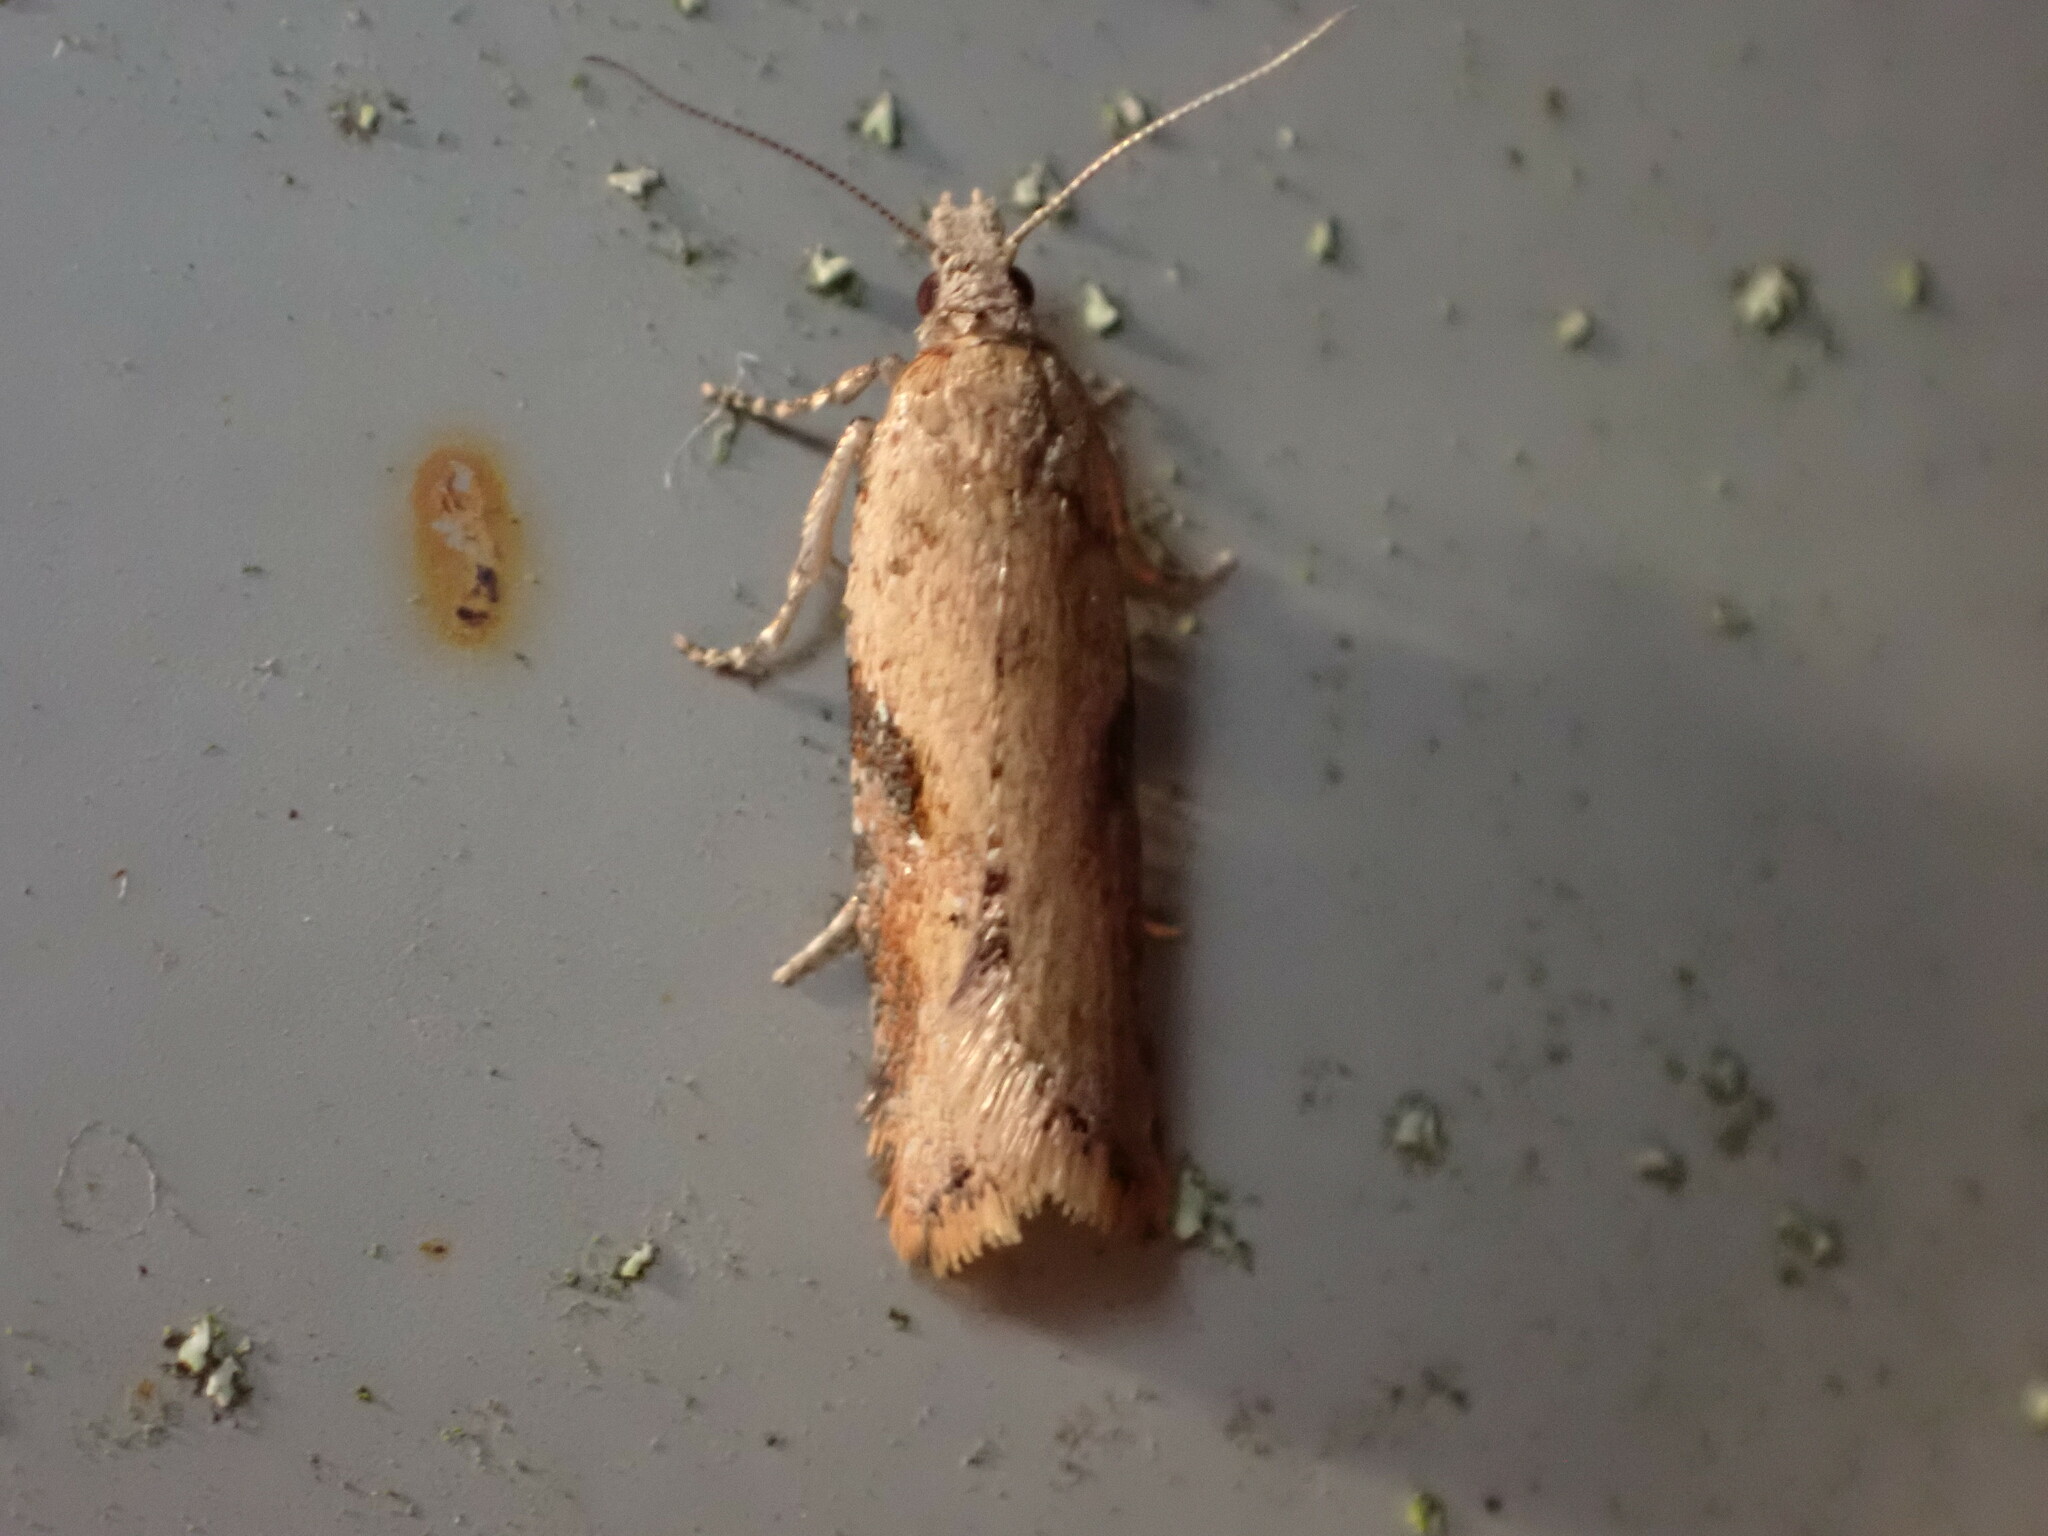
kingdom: Animalia
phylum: Arthropoda
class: Insecta
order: Lepidoptera
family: Tortricidae
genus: Capua
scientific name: Capua semiferana
